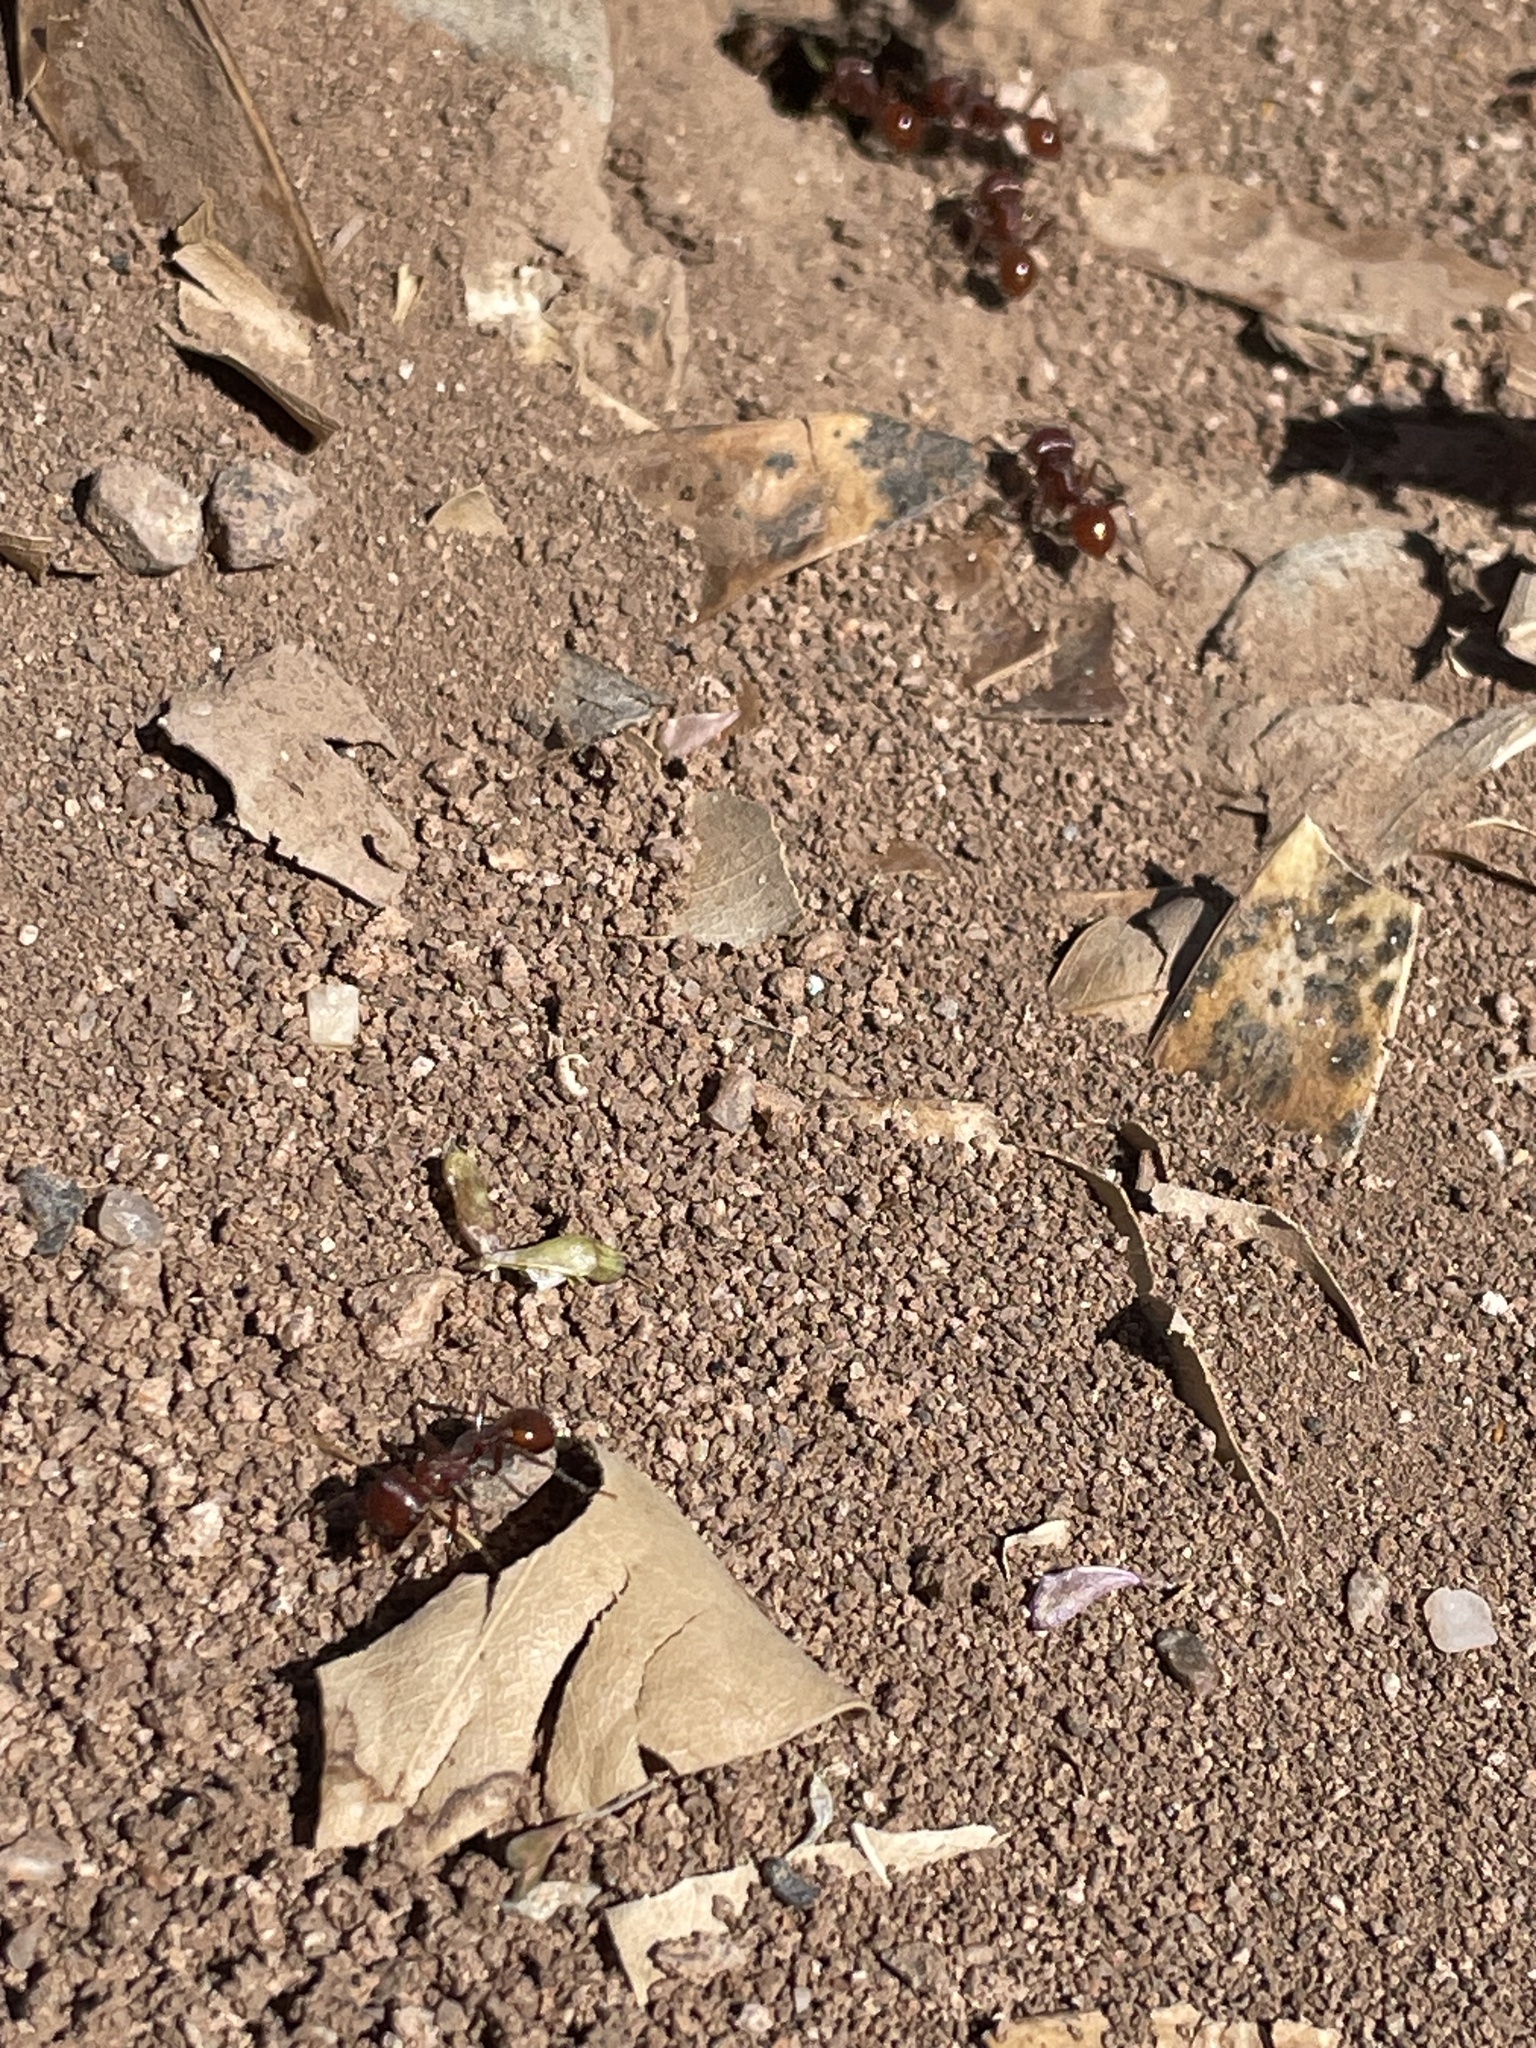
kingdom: Animalia
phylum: Arthropoda
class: Insecta
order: Hymenoptera
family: Formicidae
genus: Pogonomyrmex
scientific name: Pogonomyrmex barbatus
